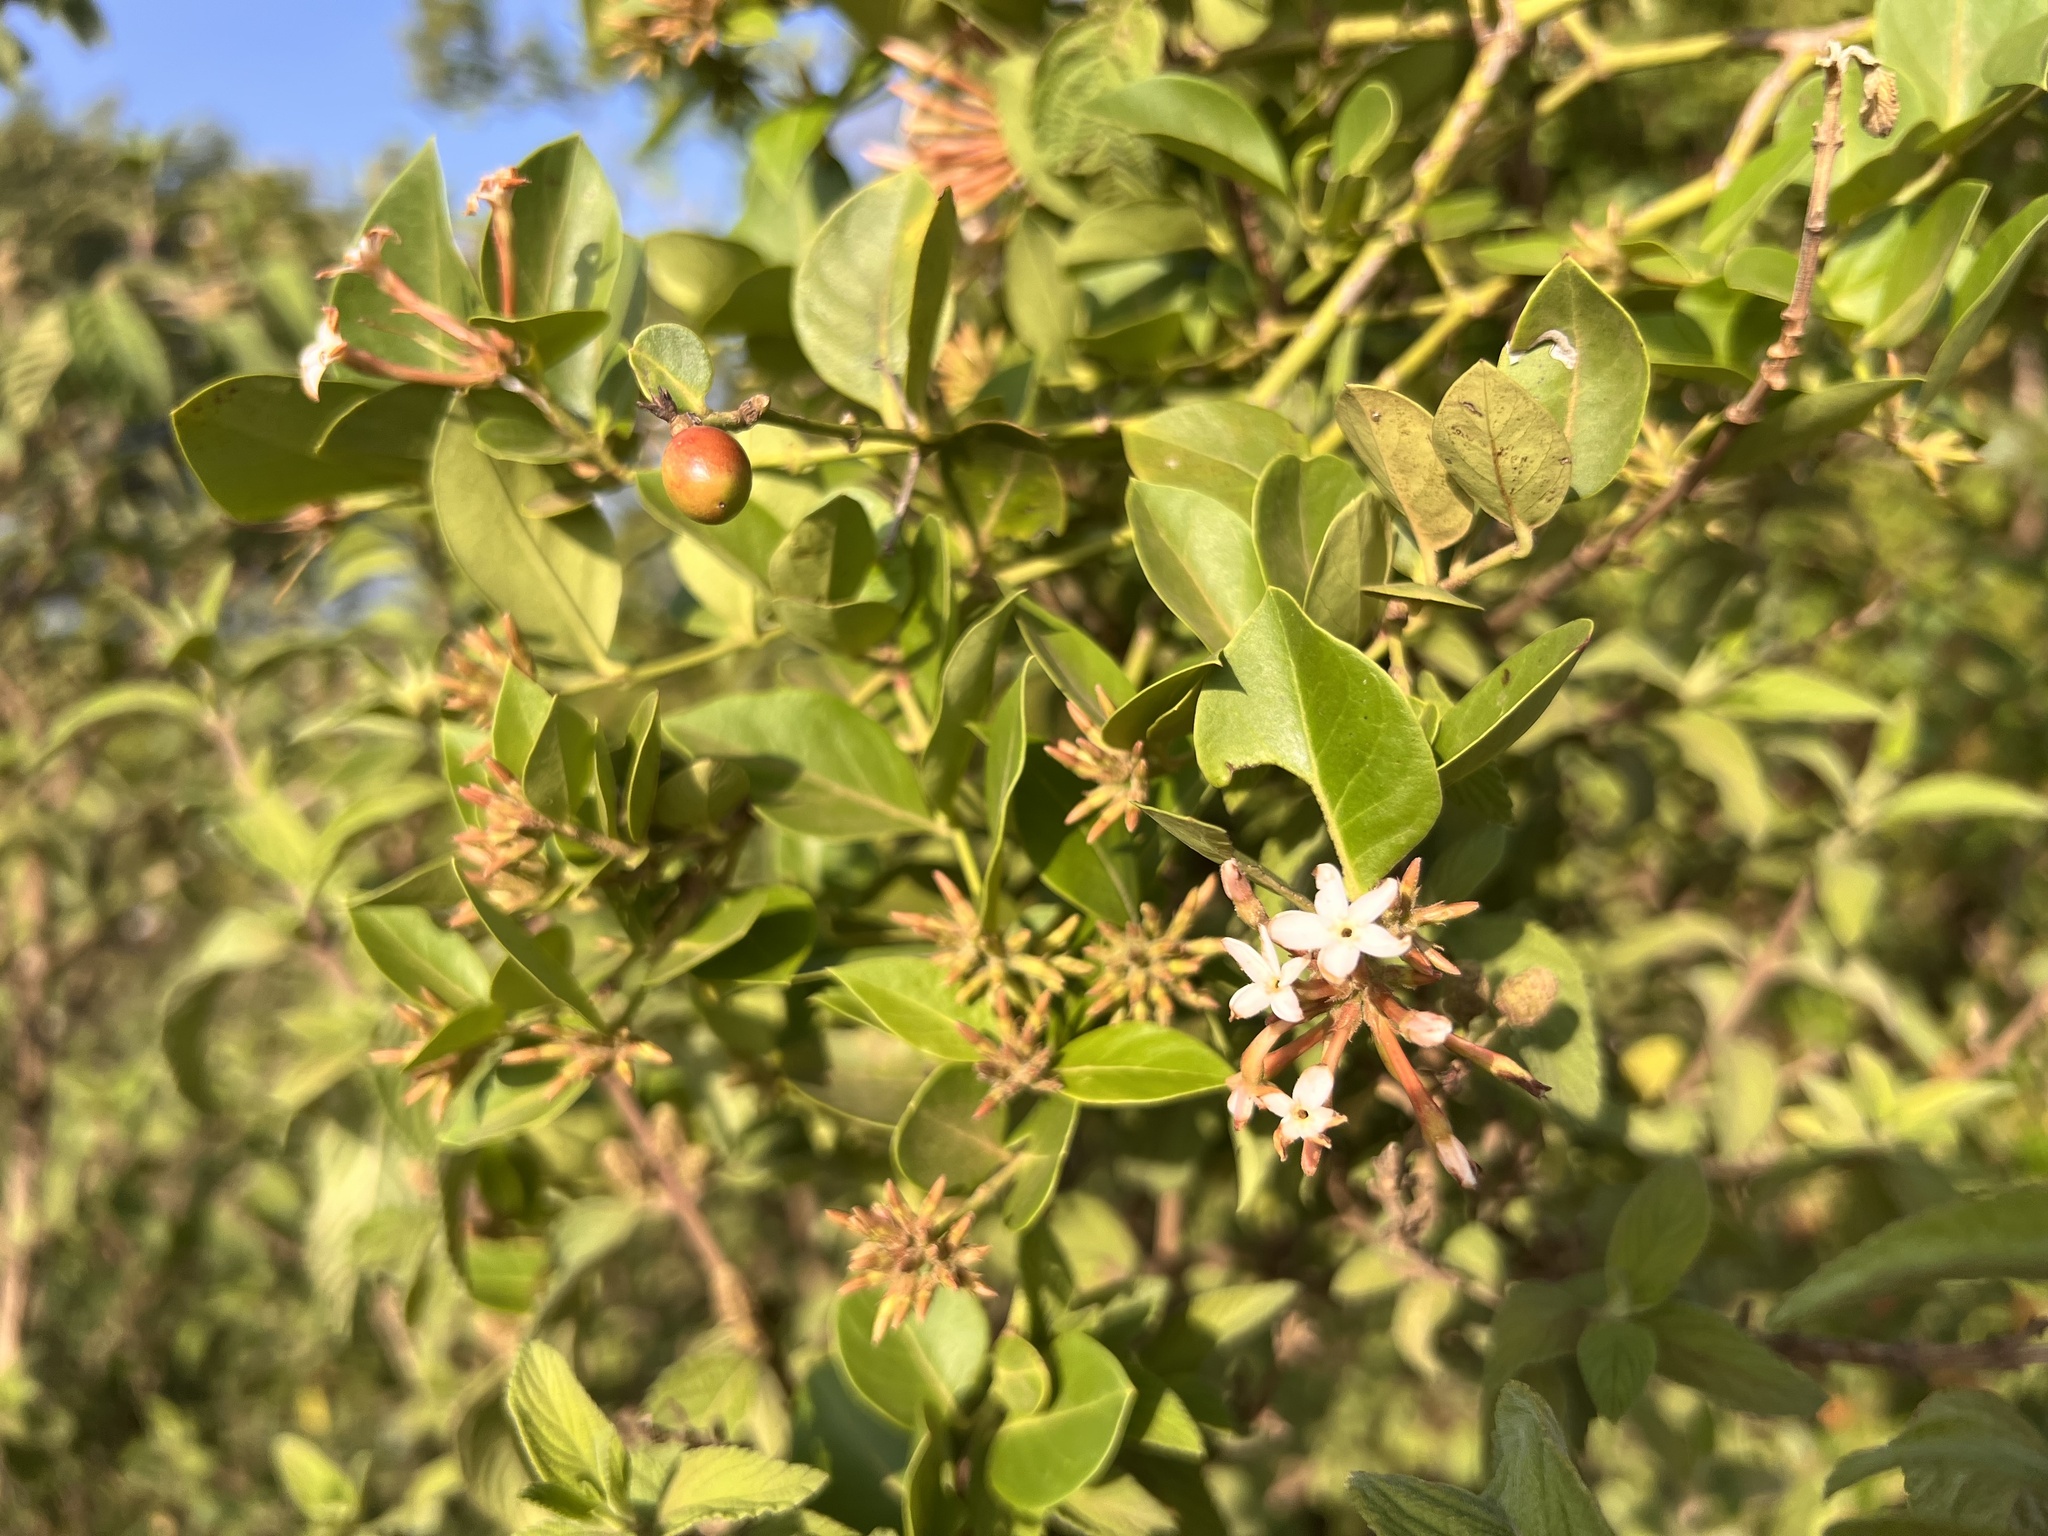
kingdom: Plantae
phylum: Tracheophyta
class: Magnoliopsida
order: Gentianales
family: Apocynaceae
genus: Carissa
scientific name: Carissa spinarum
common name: Egyptian carissa
